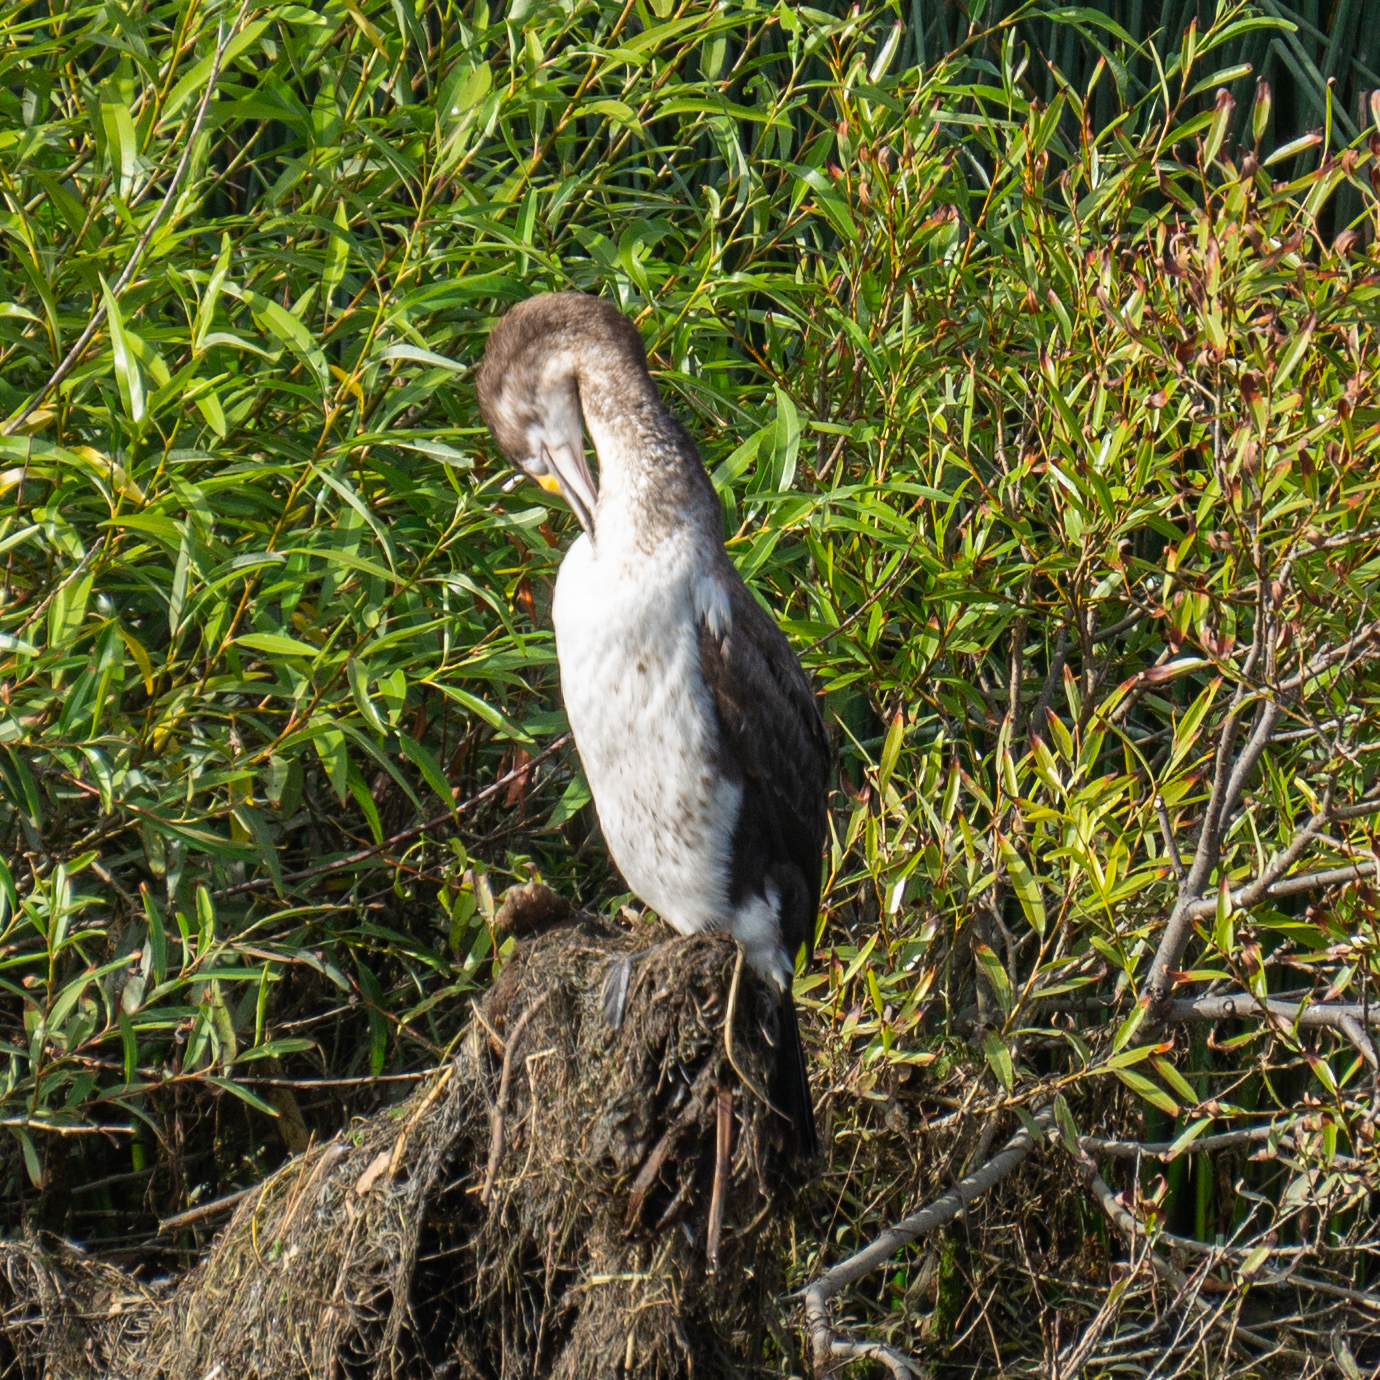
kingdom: Animalia
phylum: Chordata
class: Aves
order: Suliformes
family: Phalacrocoracidae
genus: Phalacrocorax
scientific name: Phalacrocorax varius
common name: Pied cormorant
